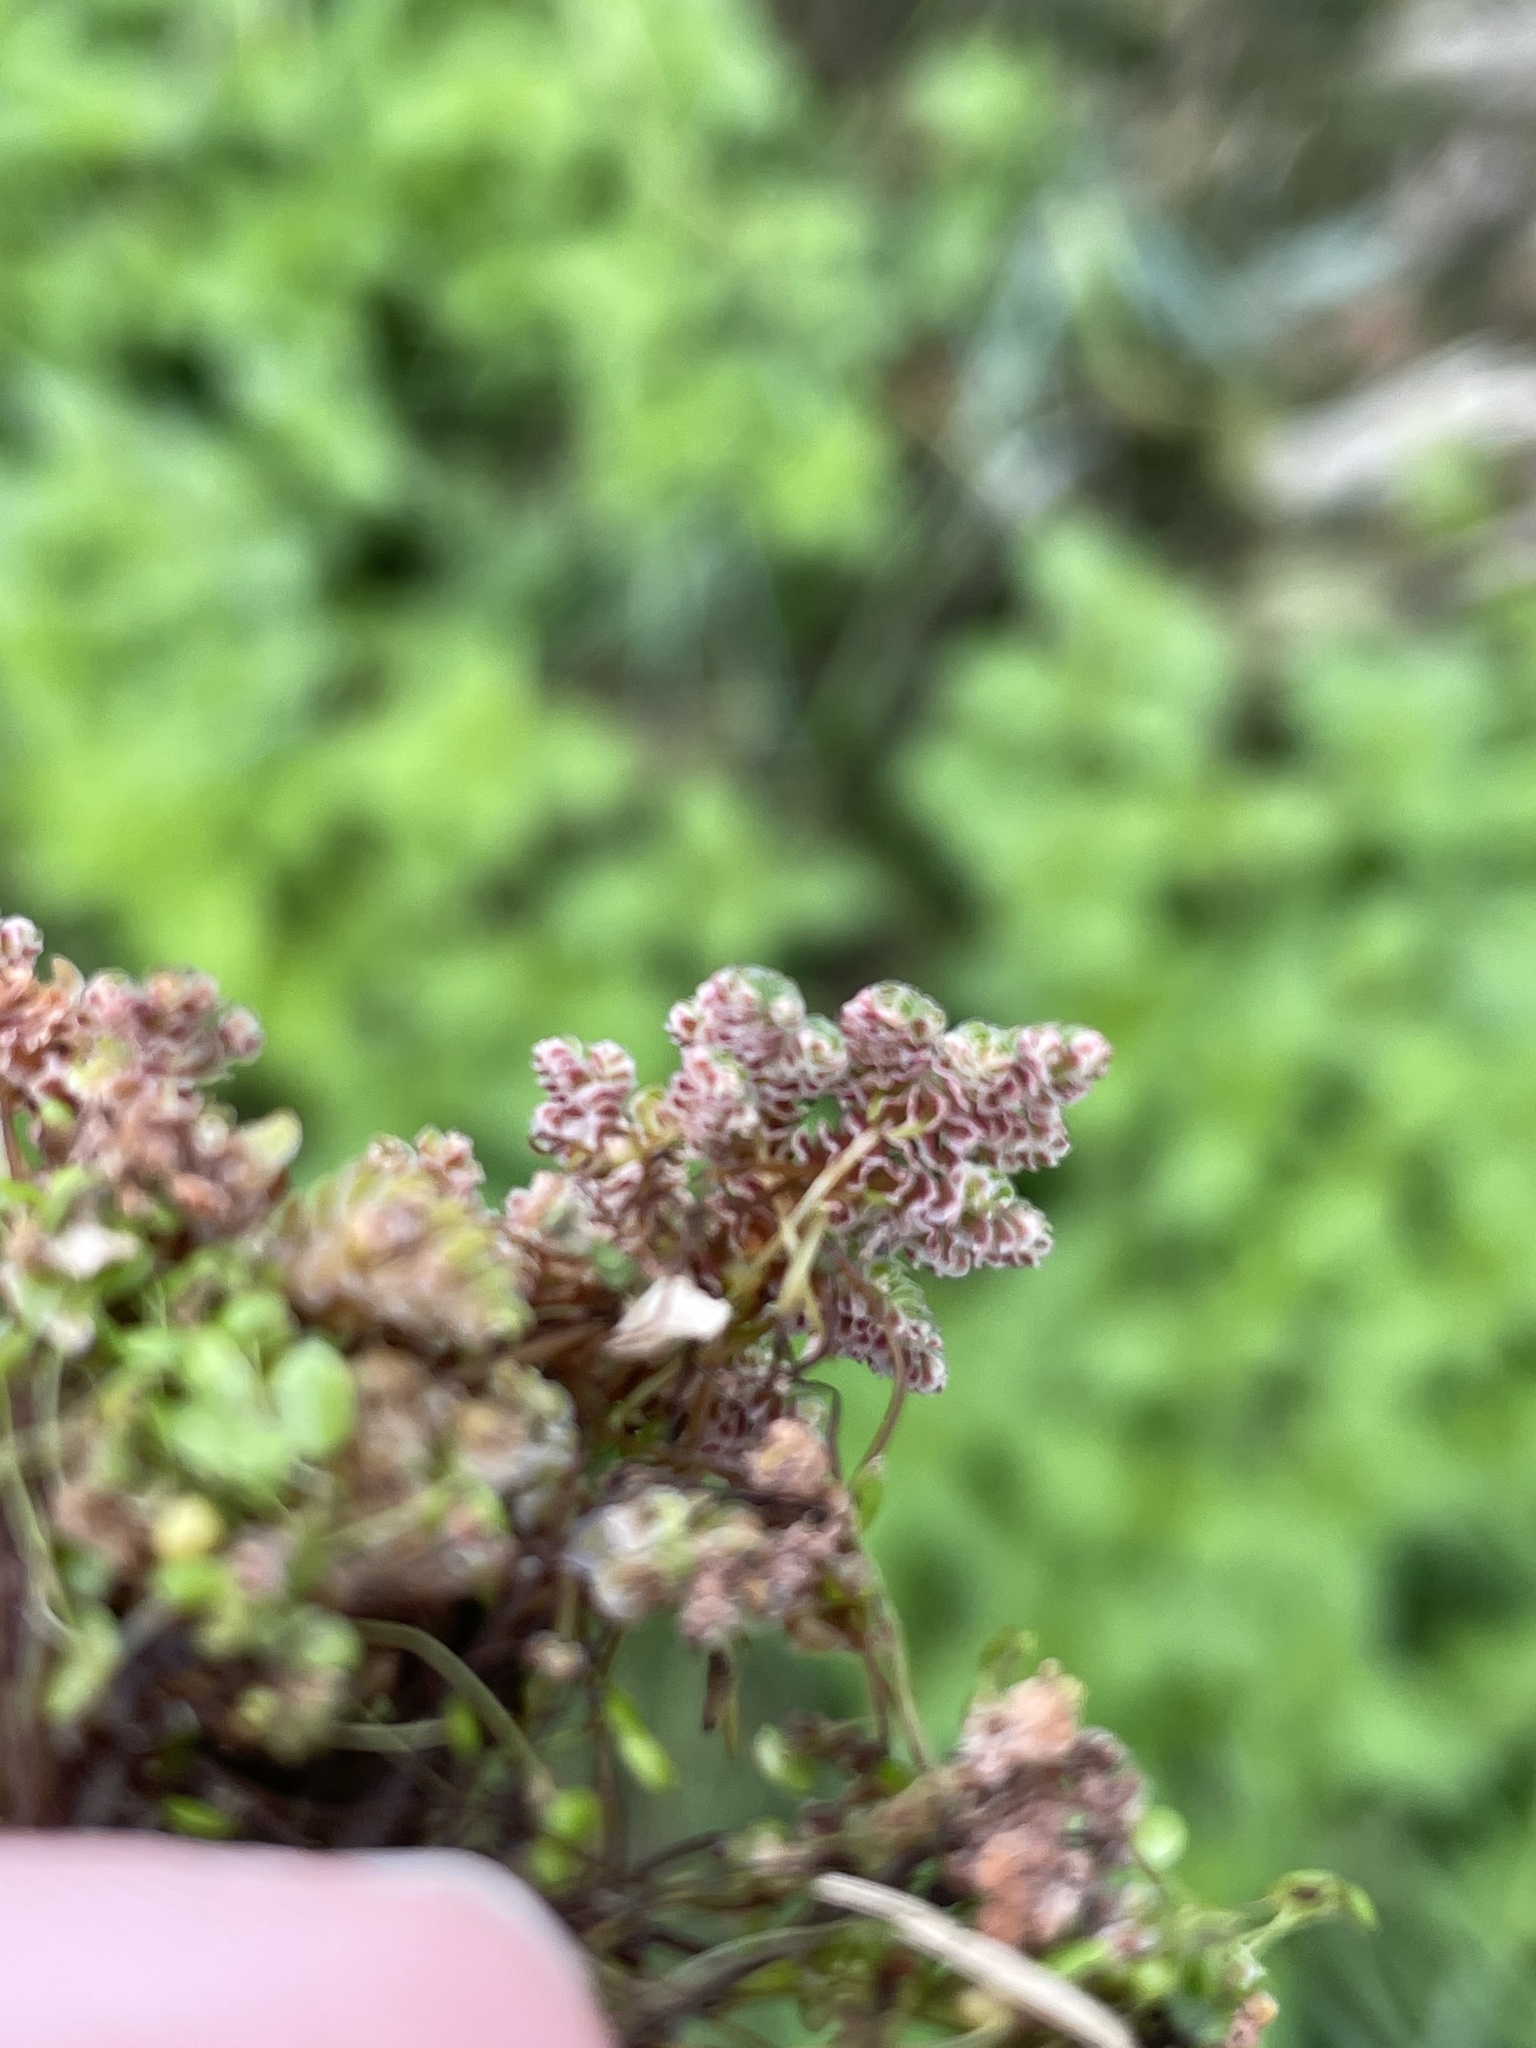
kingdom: Plantae
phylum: Tracheophyta
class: Polypodiopsida
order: Salviniales
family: Salviniaceae
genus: Azolla
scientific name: Azolla filiculoides
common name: Water fern
